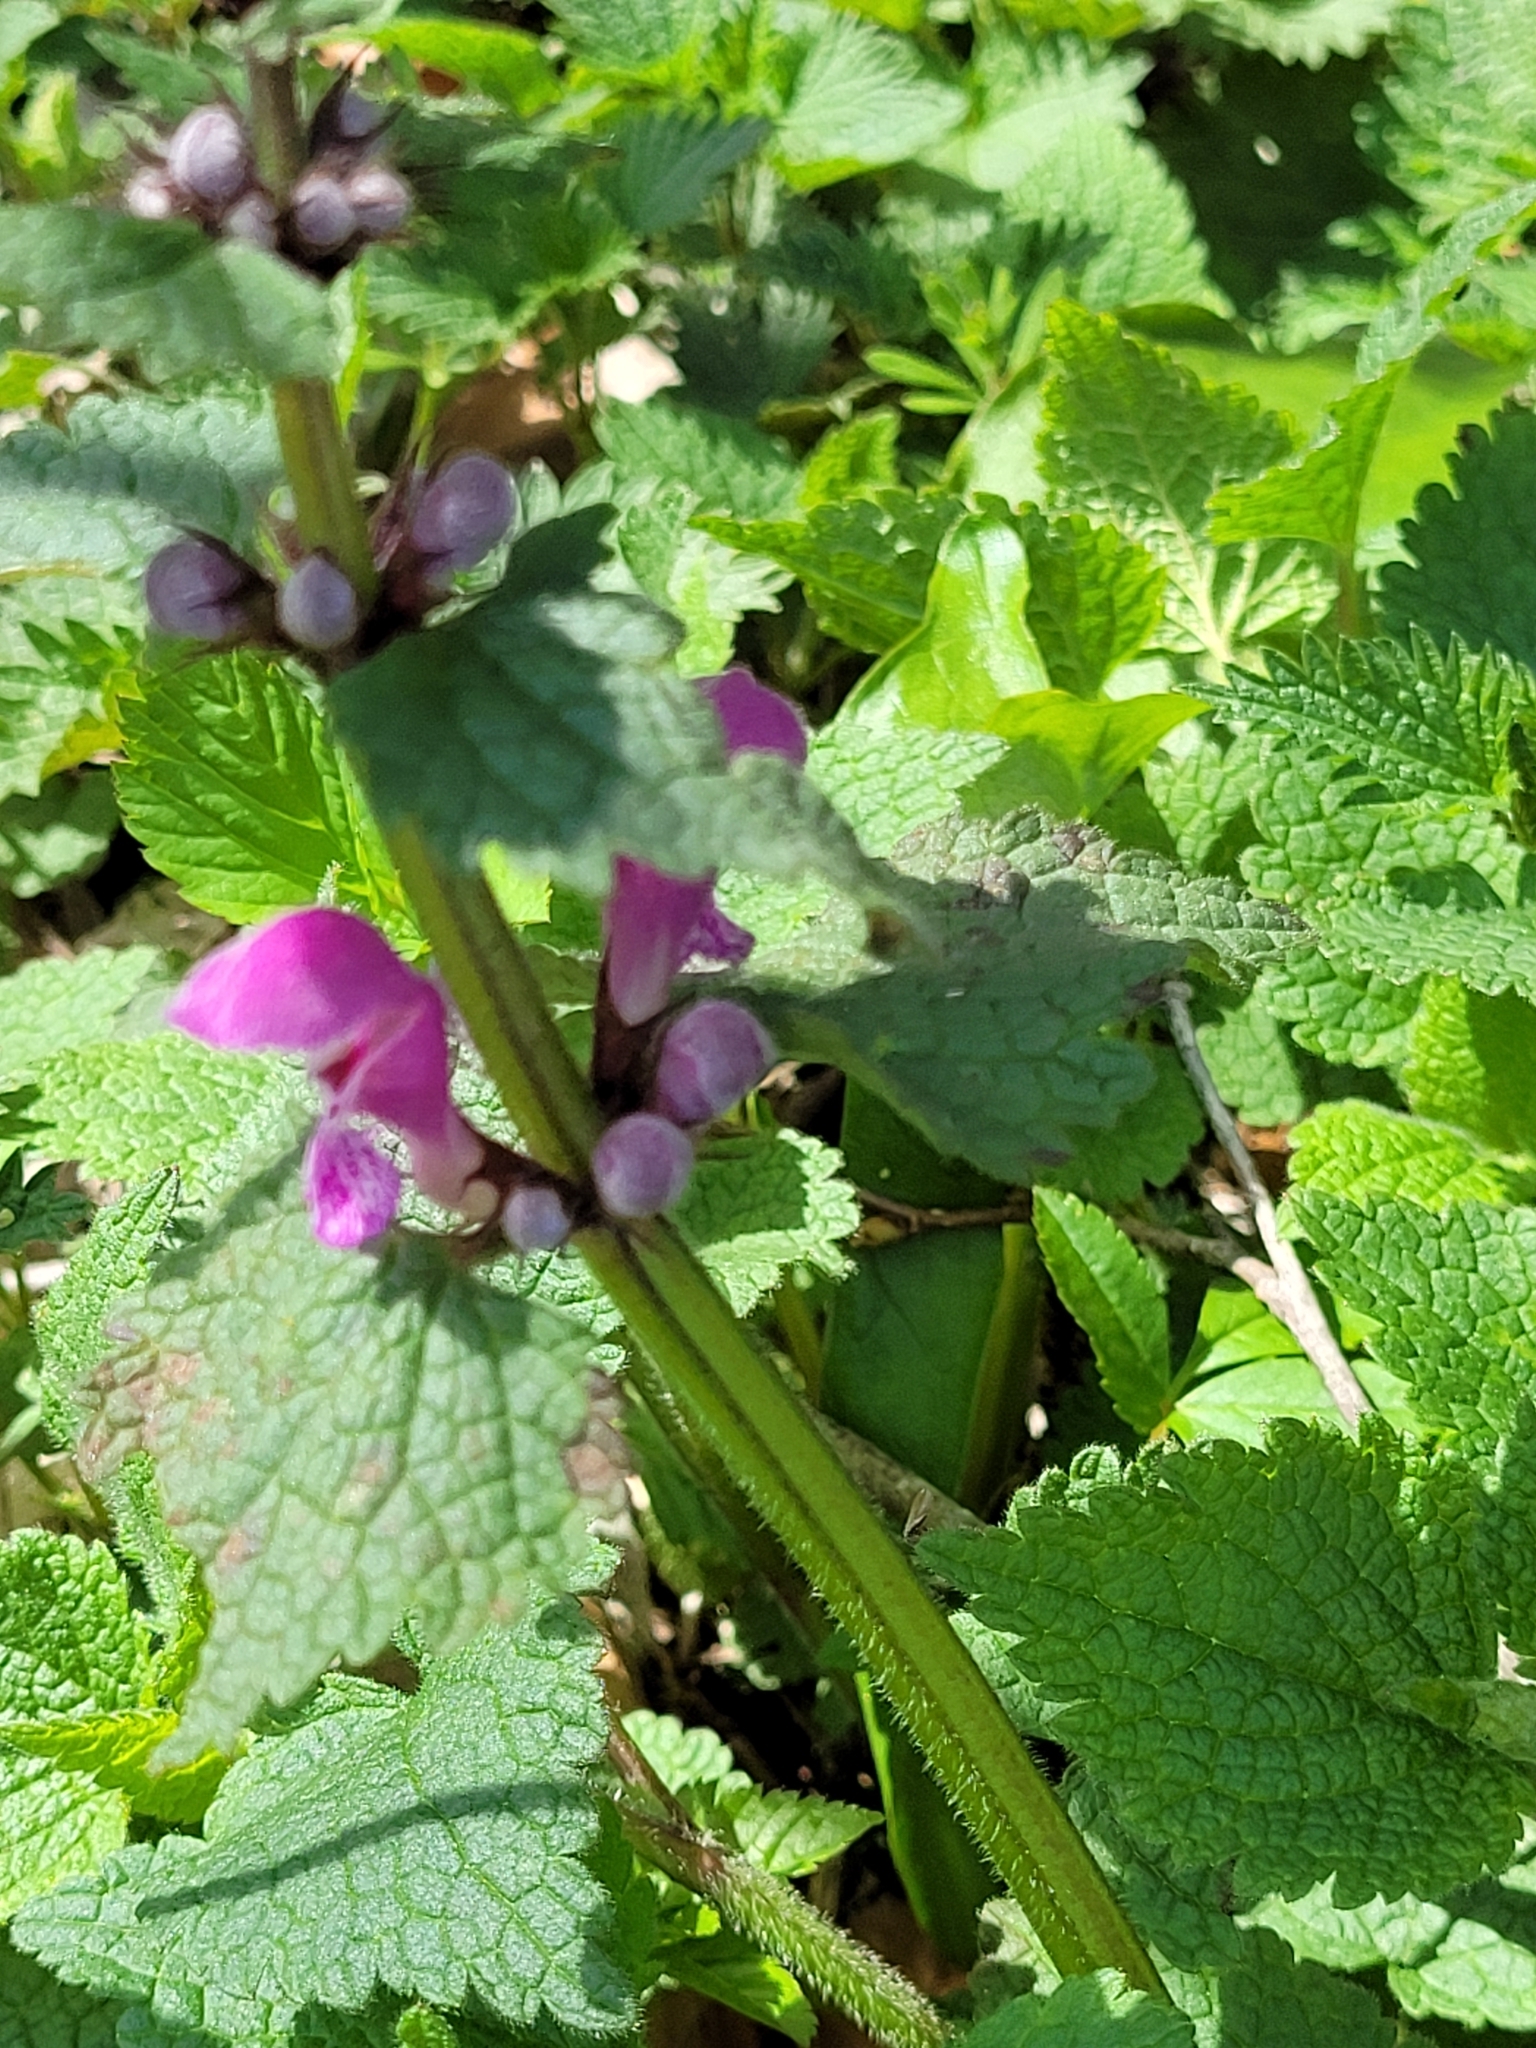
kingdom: Plantae
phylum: Tracheophyta
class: Magnoliopsida
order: Lamiales
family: Lamiaceae
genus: Lamium
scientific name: Lamium maculatum
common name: Spotted dead-nettle
